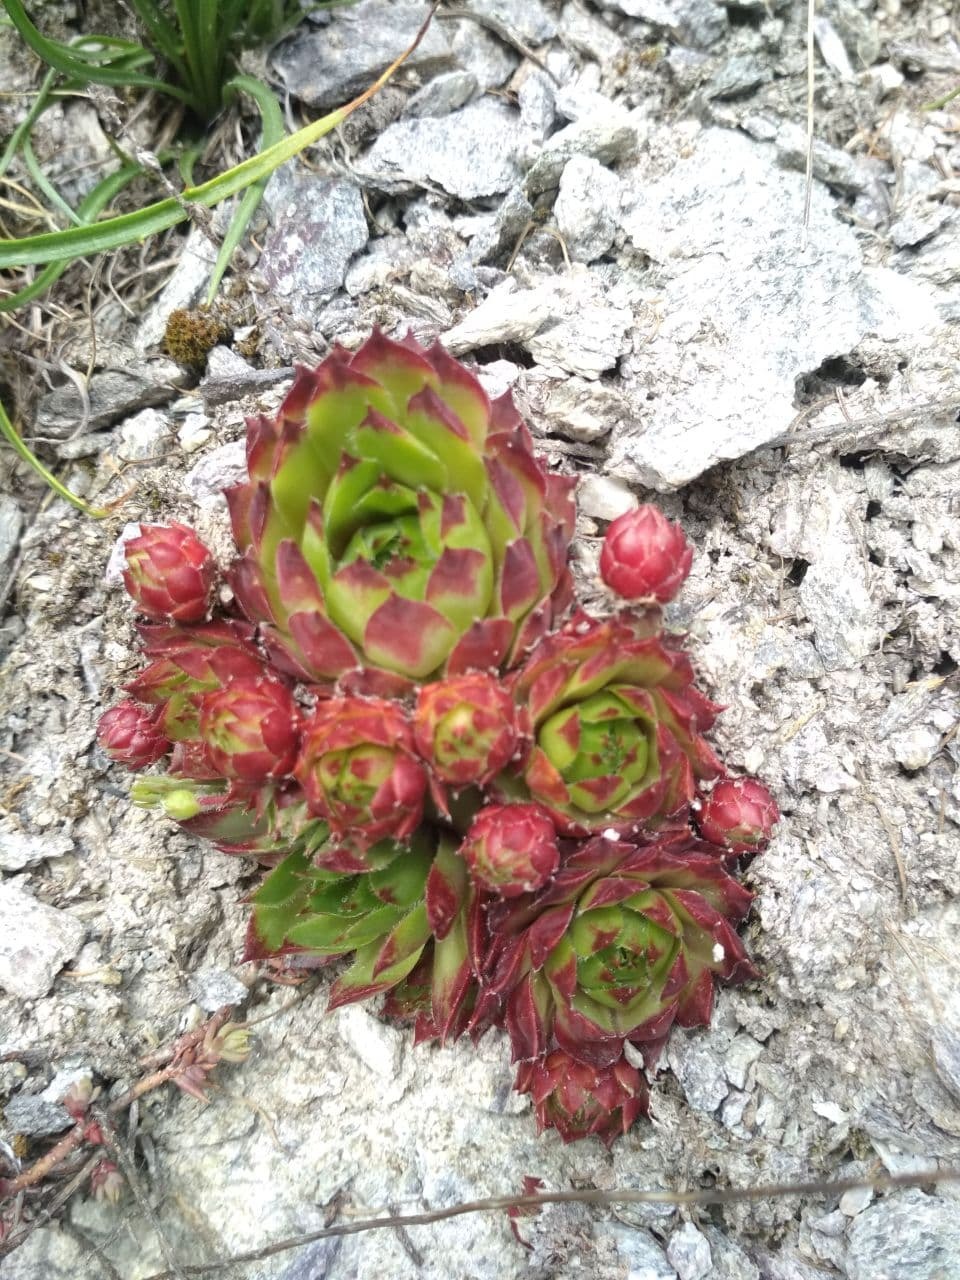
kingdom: Plantae
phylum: Tracheophyta
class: Magnoliopsida
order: Saxifragales
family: Crassulaceae
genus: Sempervivum
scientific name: Sempervivum tectorum
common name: House-leek
